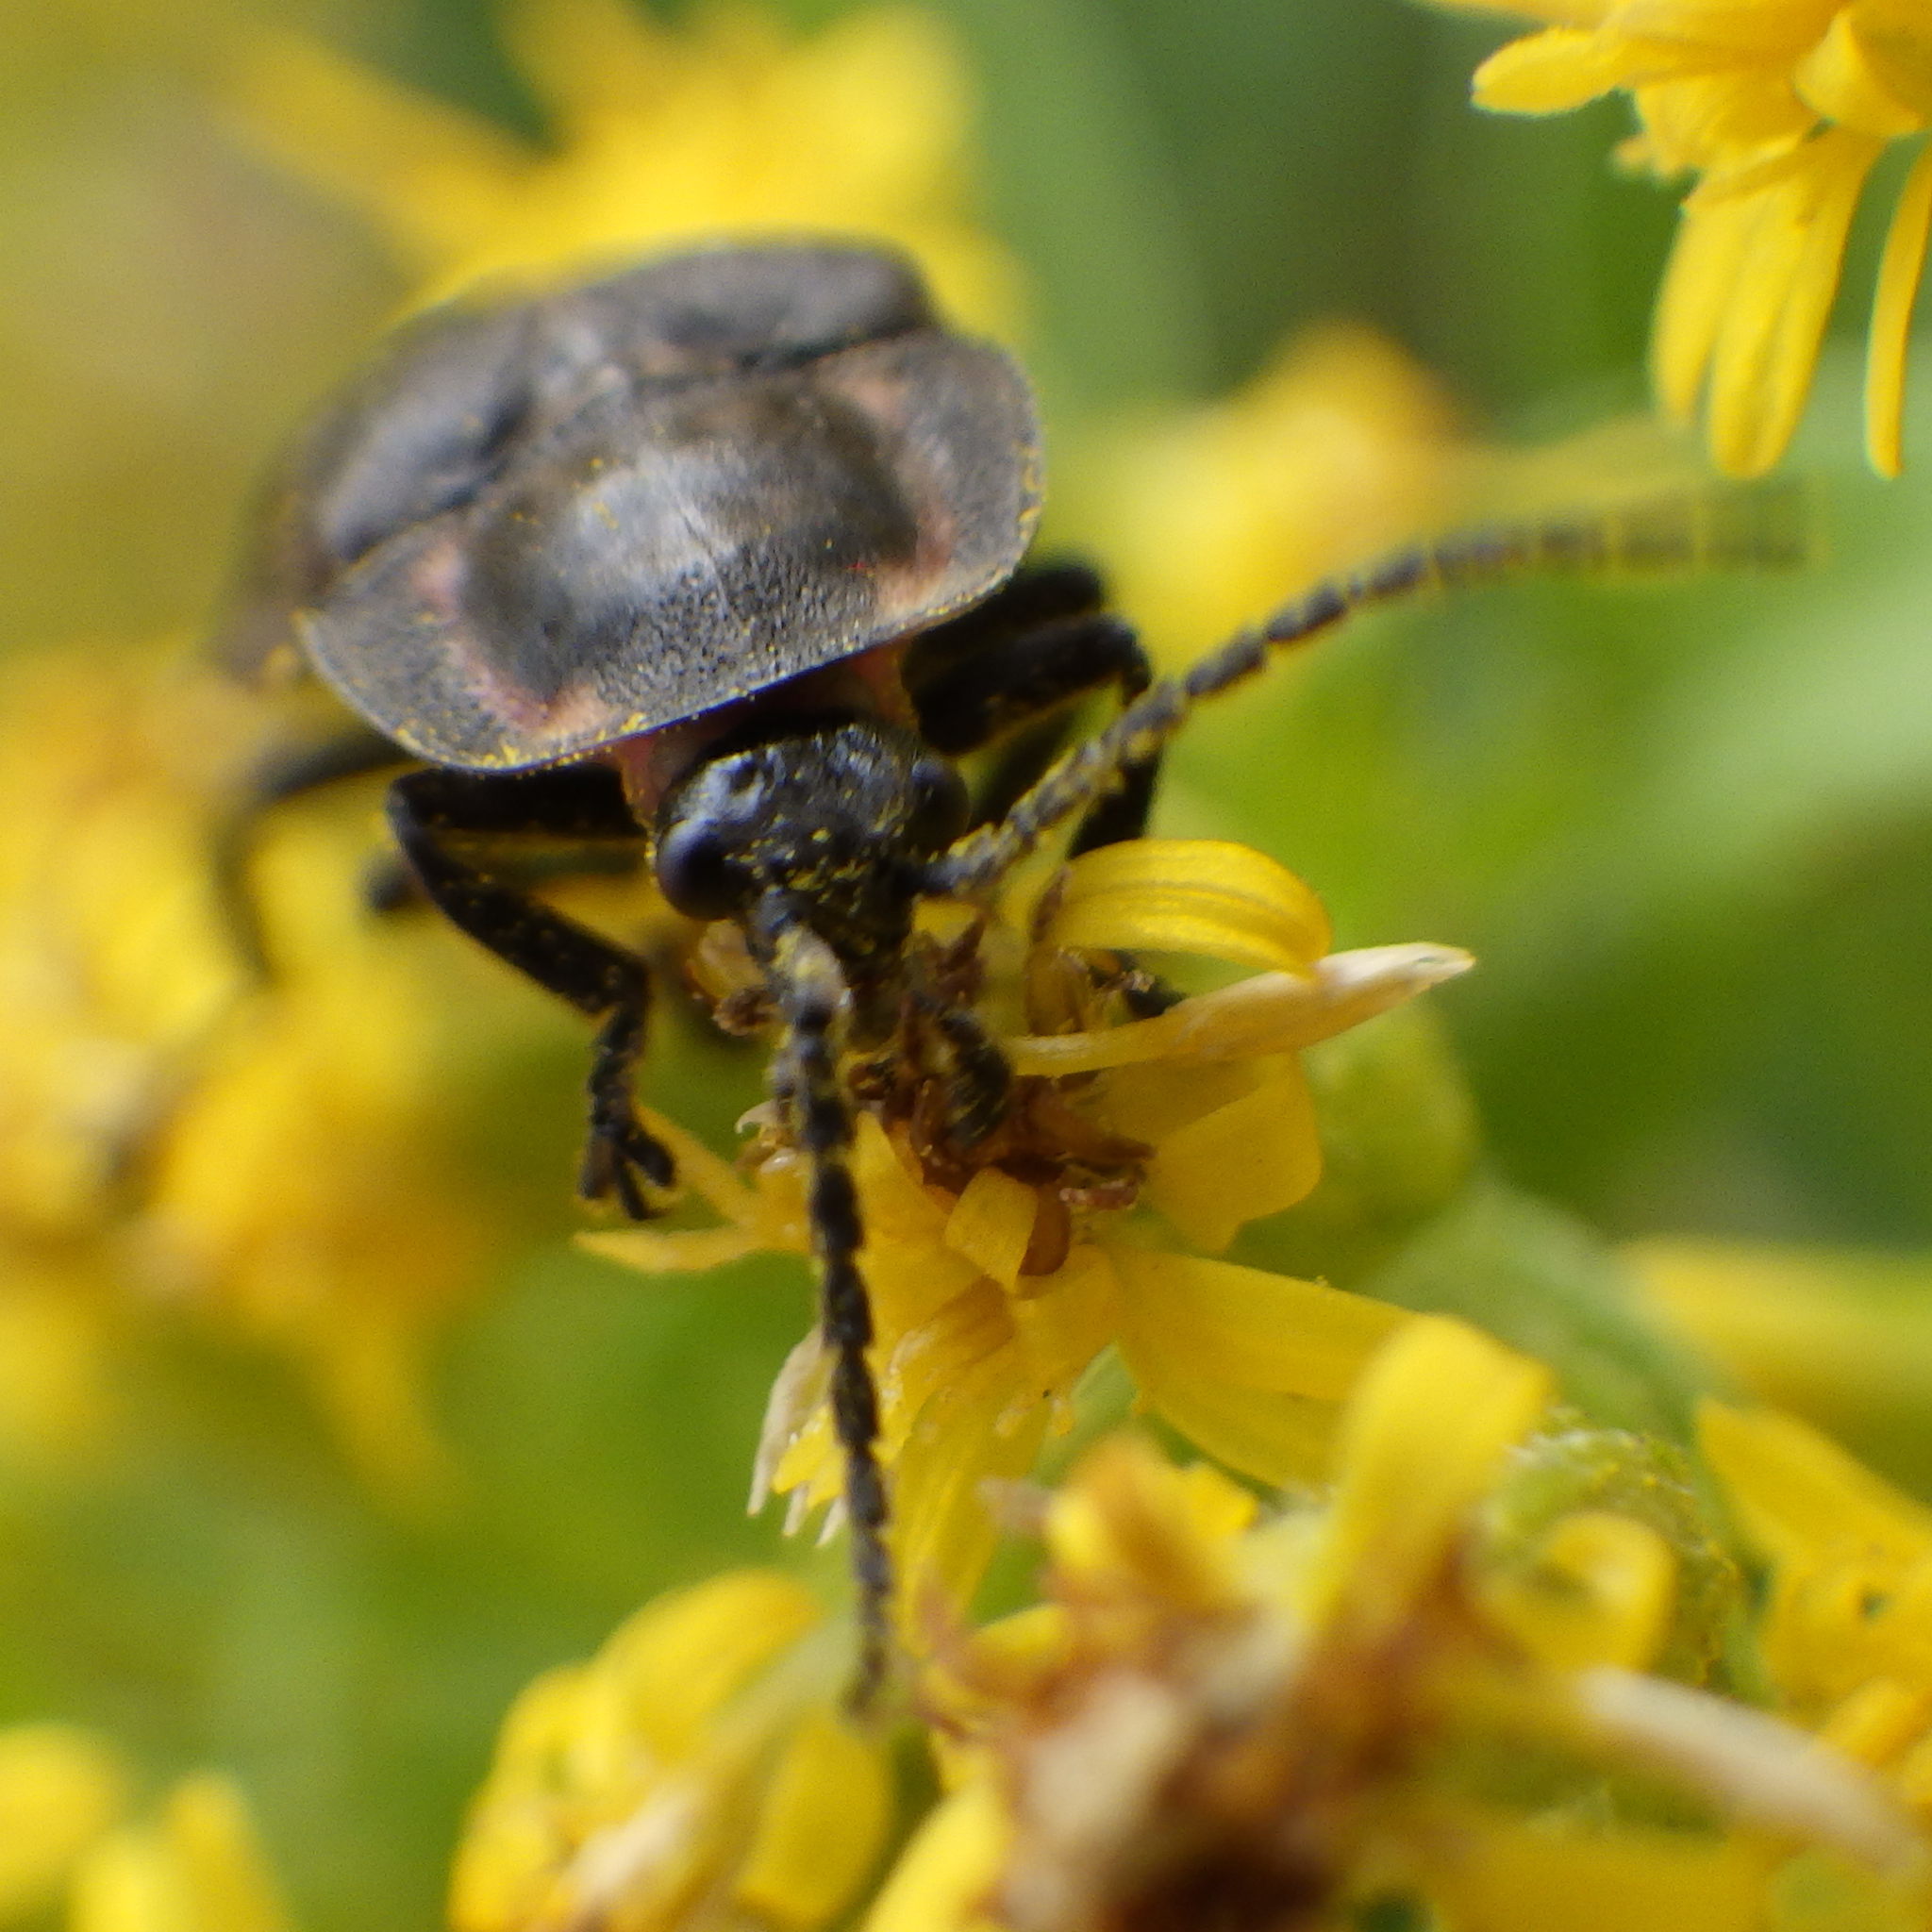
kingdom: Animalia
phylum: Arthropoda
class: Insecta
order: Coleoptera
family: Lampyridae
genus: Photinus
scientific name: Photinus corrusca
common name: Winter firefly
